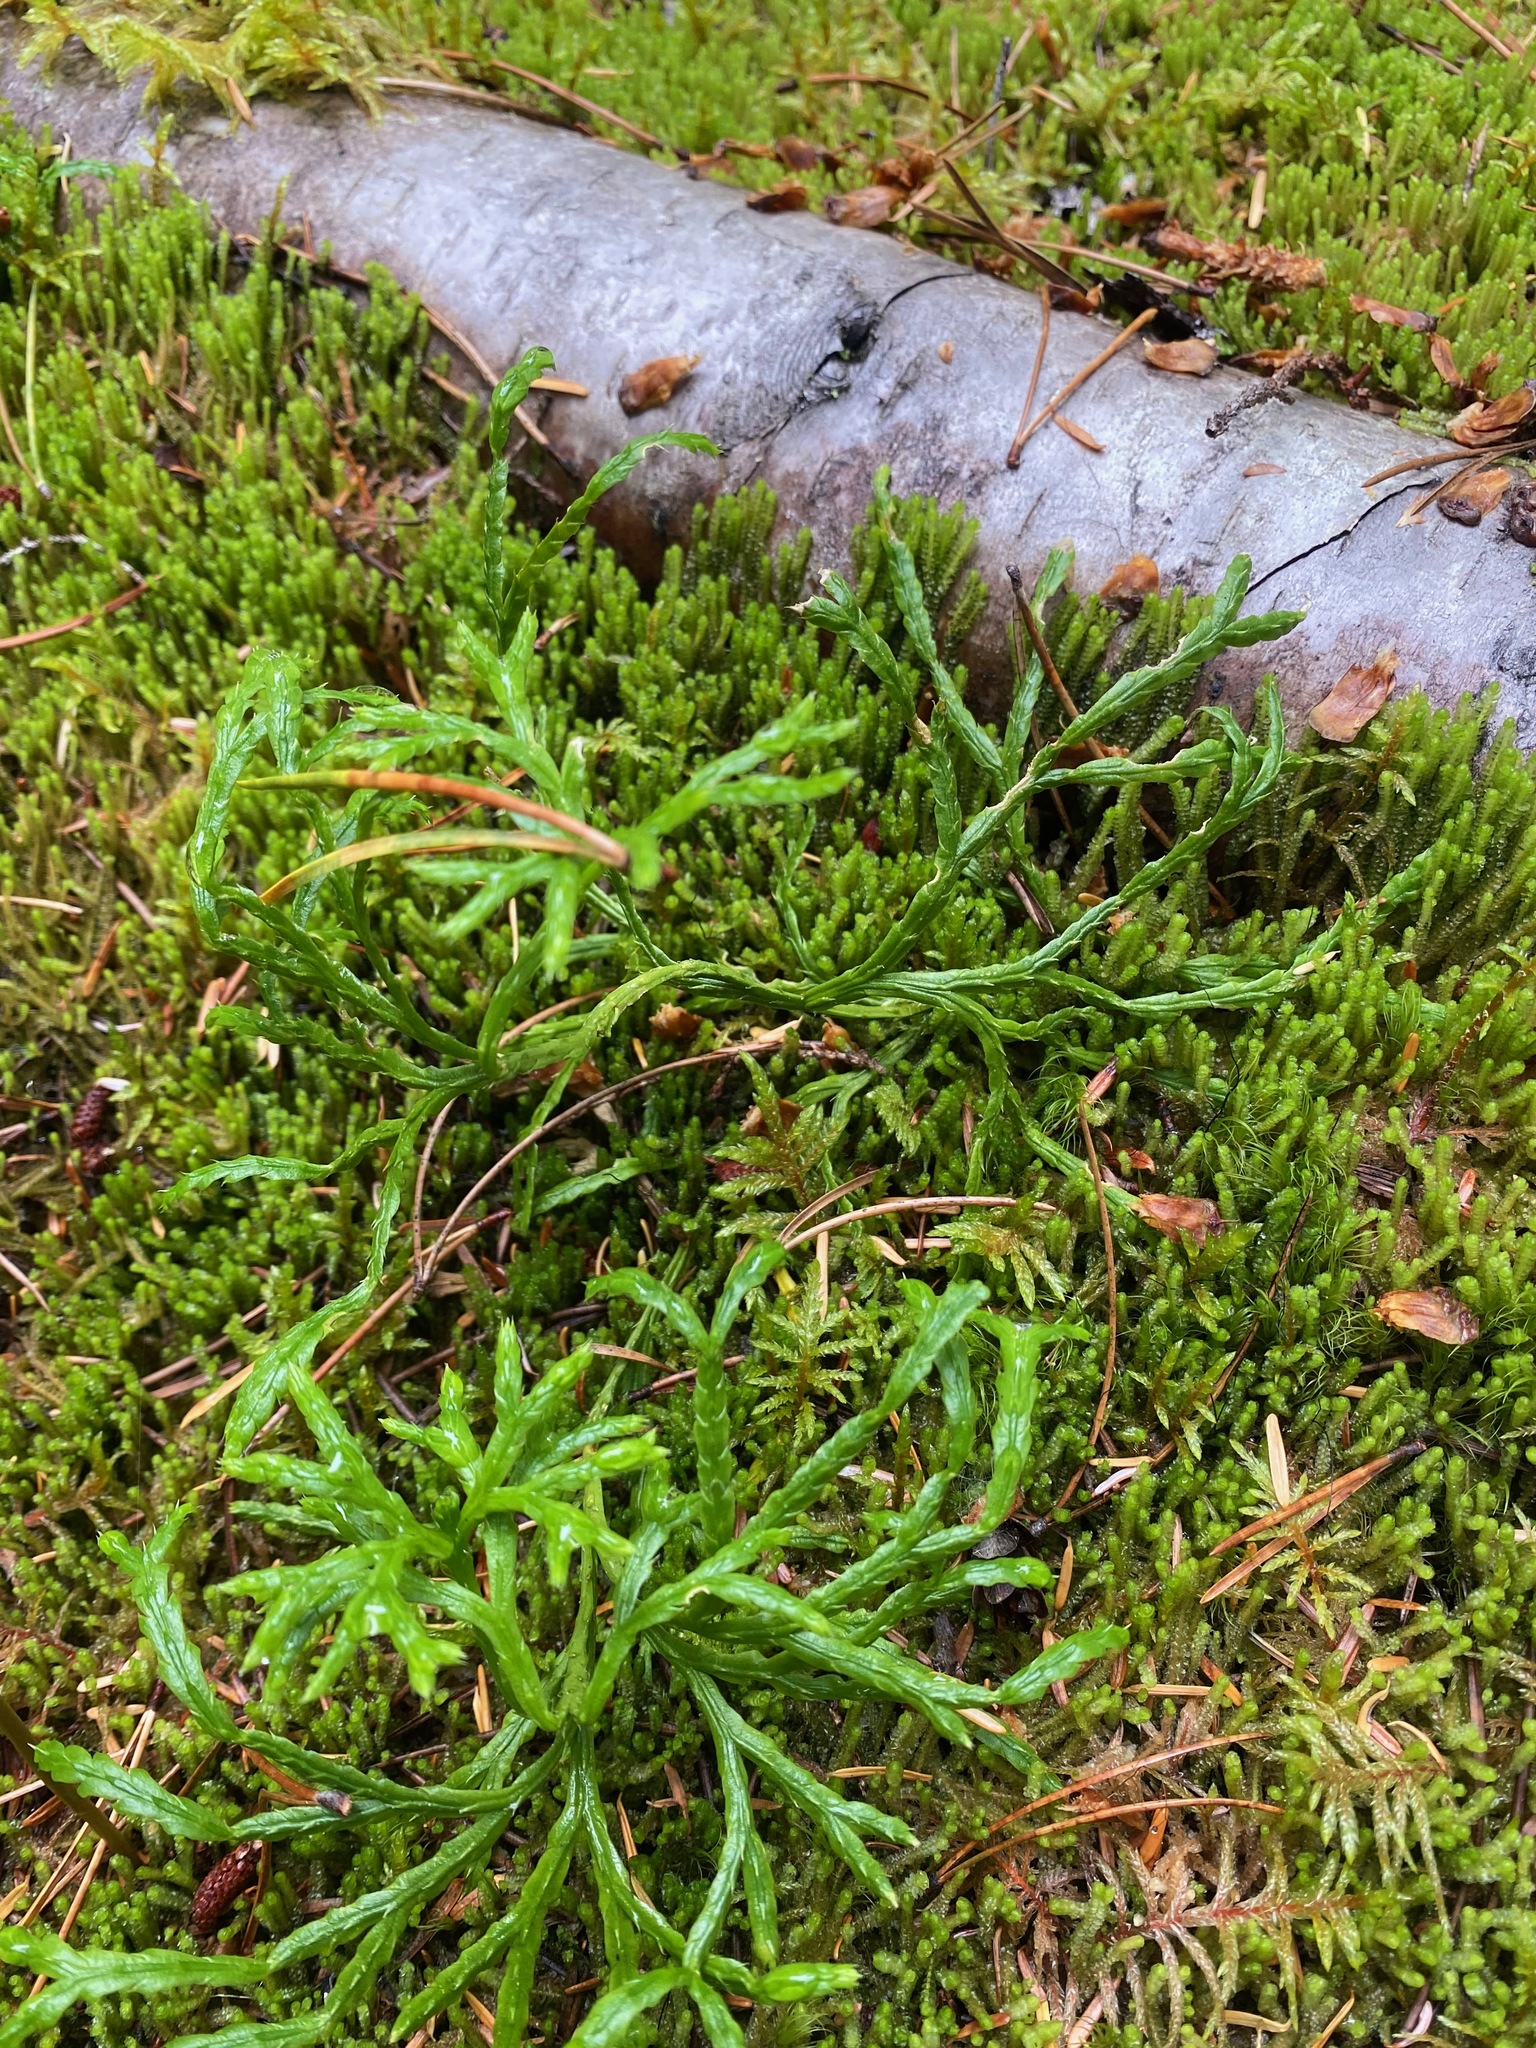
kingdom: Plantae
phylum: Tracheophyta
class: Lycopodiopsida
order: Lycopodiales
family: Lycopodiaceae
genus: Diphasiastrum
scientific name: Diphasiastrum complanatum
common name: Northern running-pine
